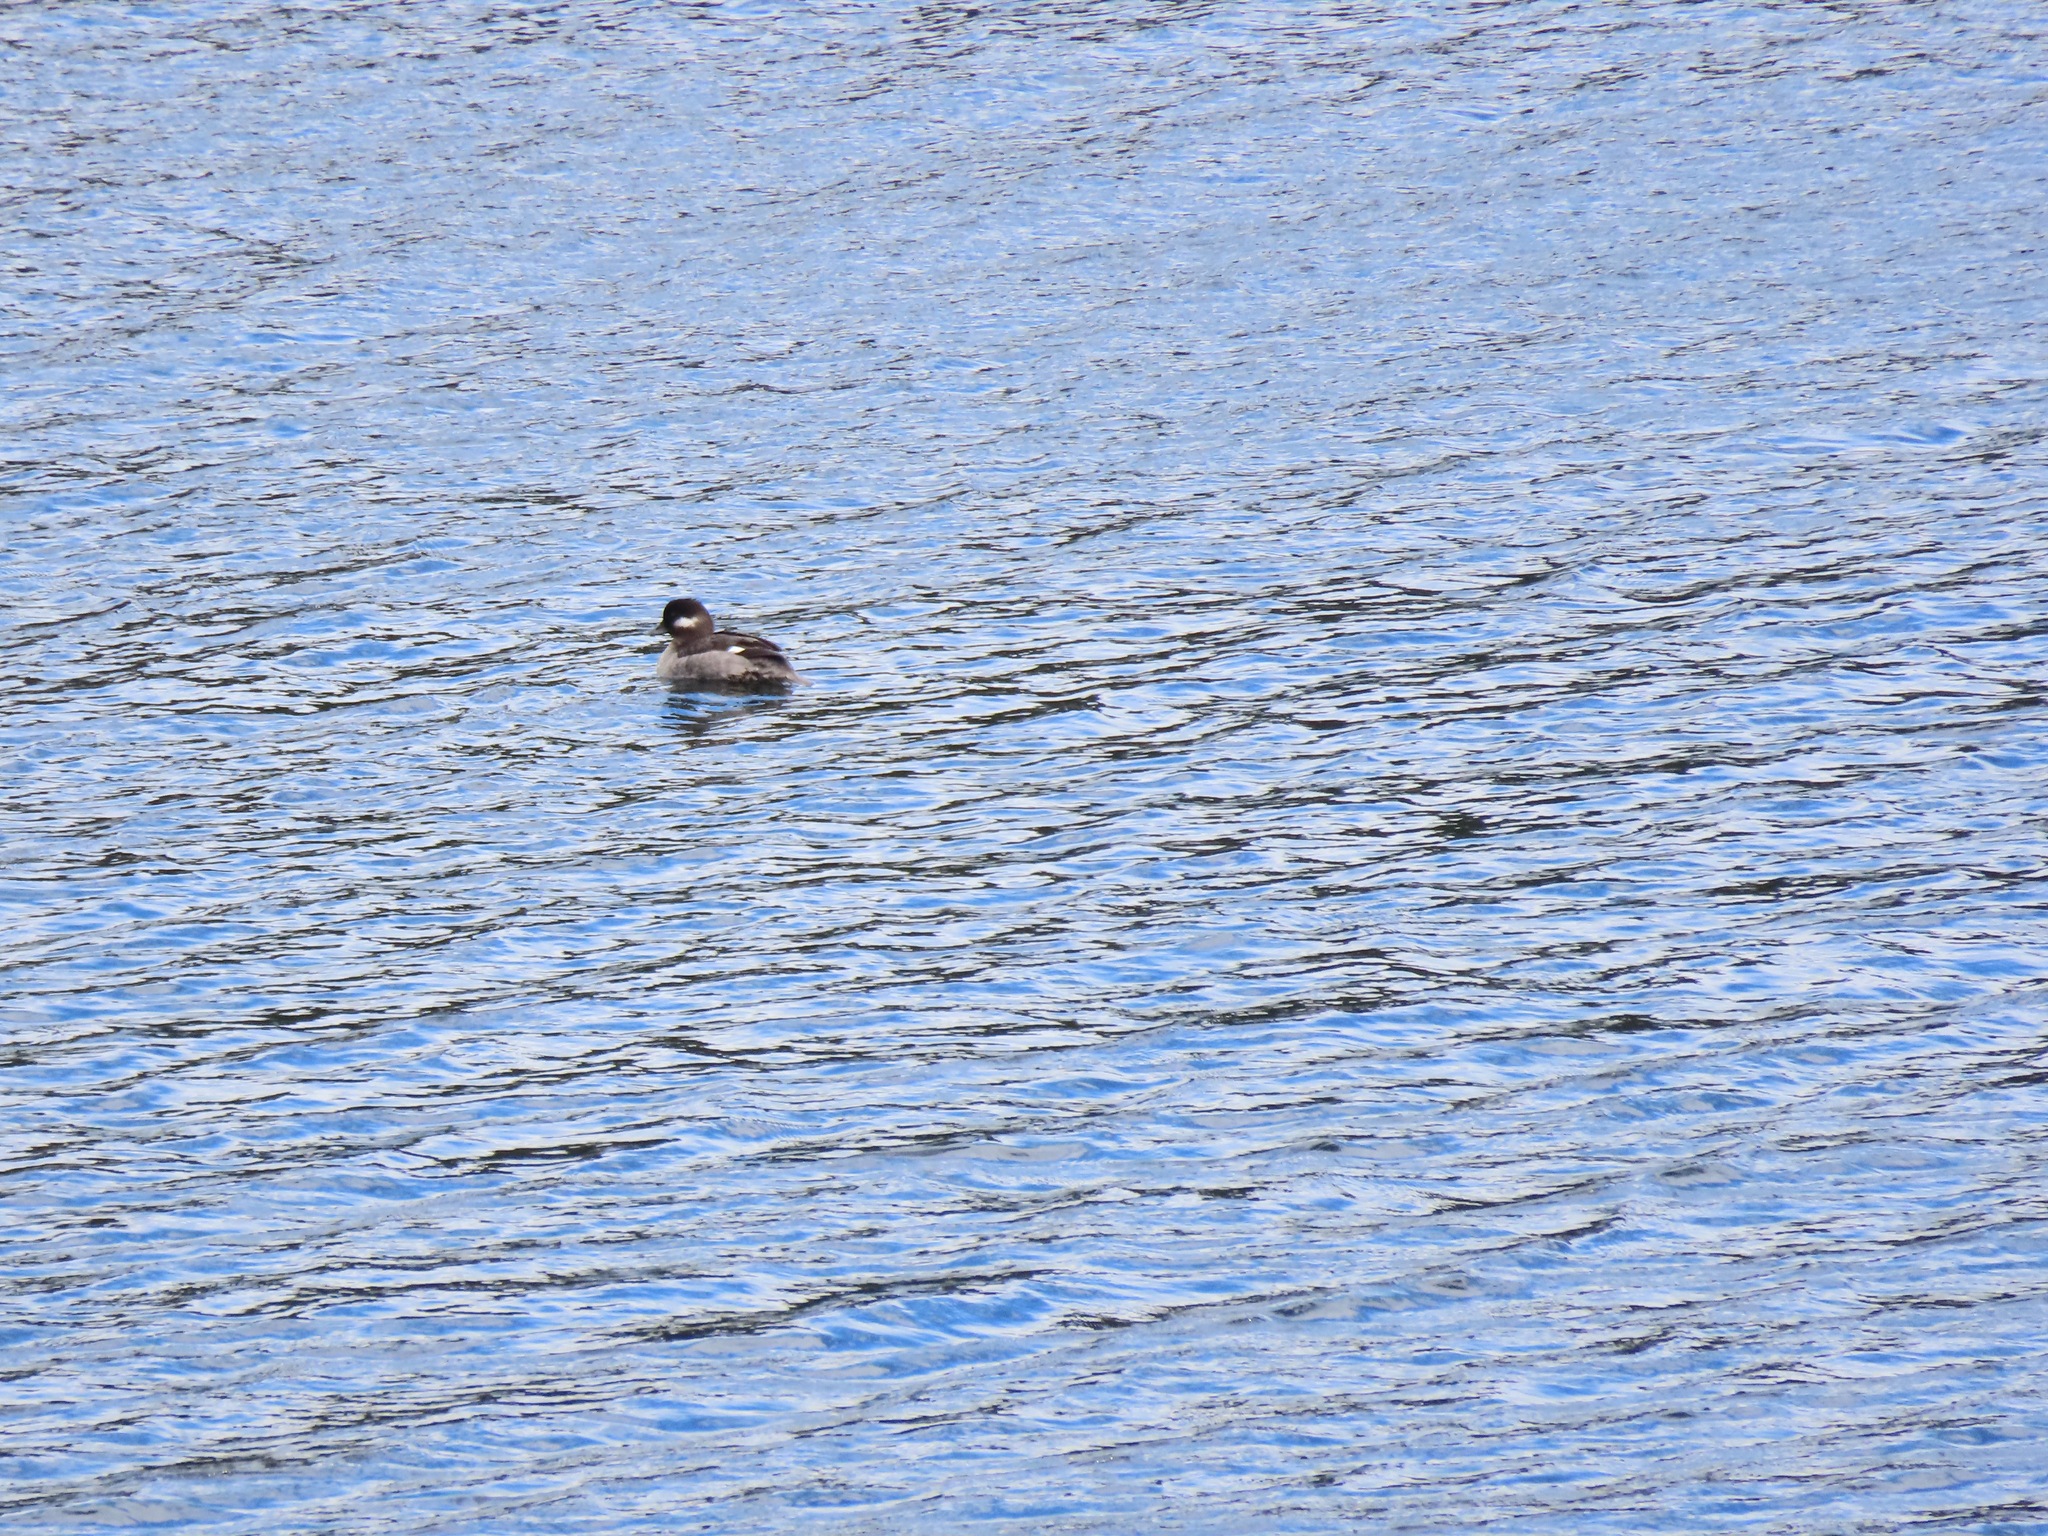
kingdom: Animalia
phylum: Chordata
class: Aves
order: Anseriformes
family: Anatidae
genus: Bucephala
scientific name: Bucephala albeola
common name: Bufflehead
